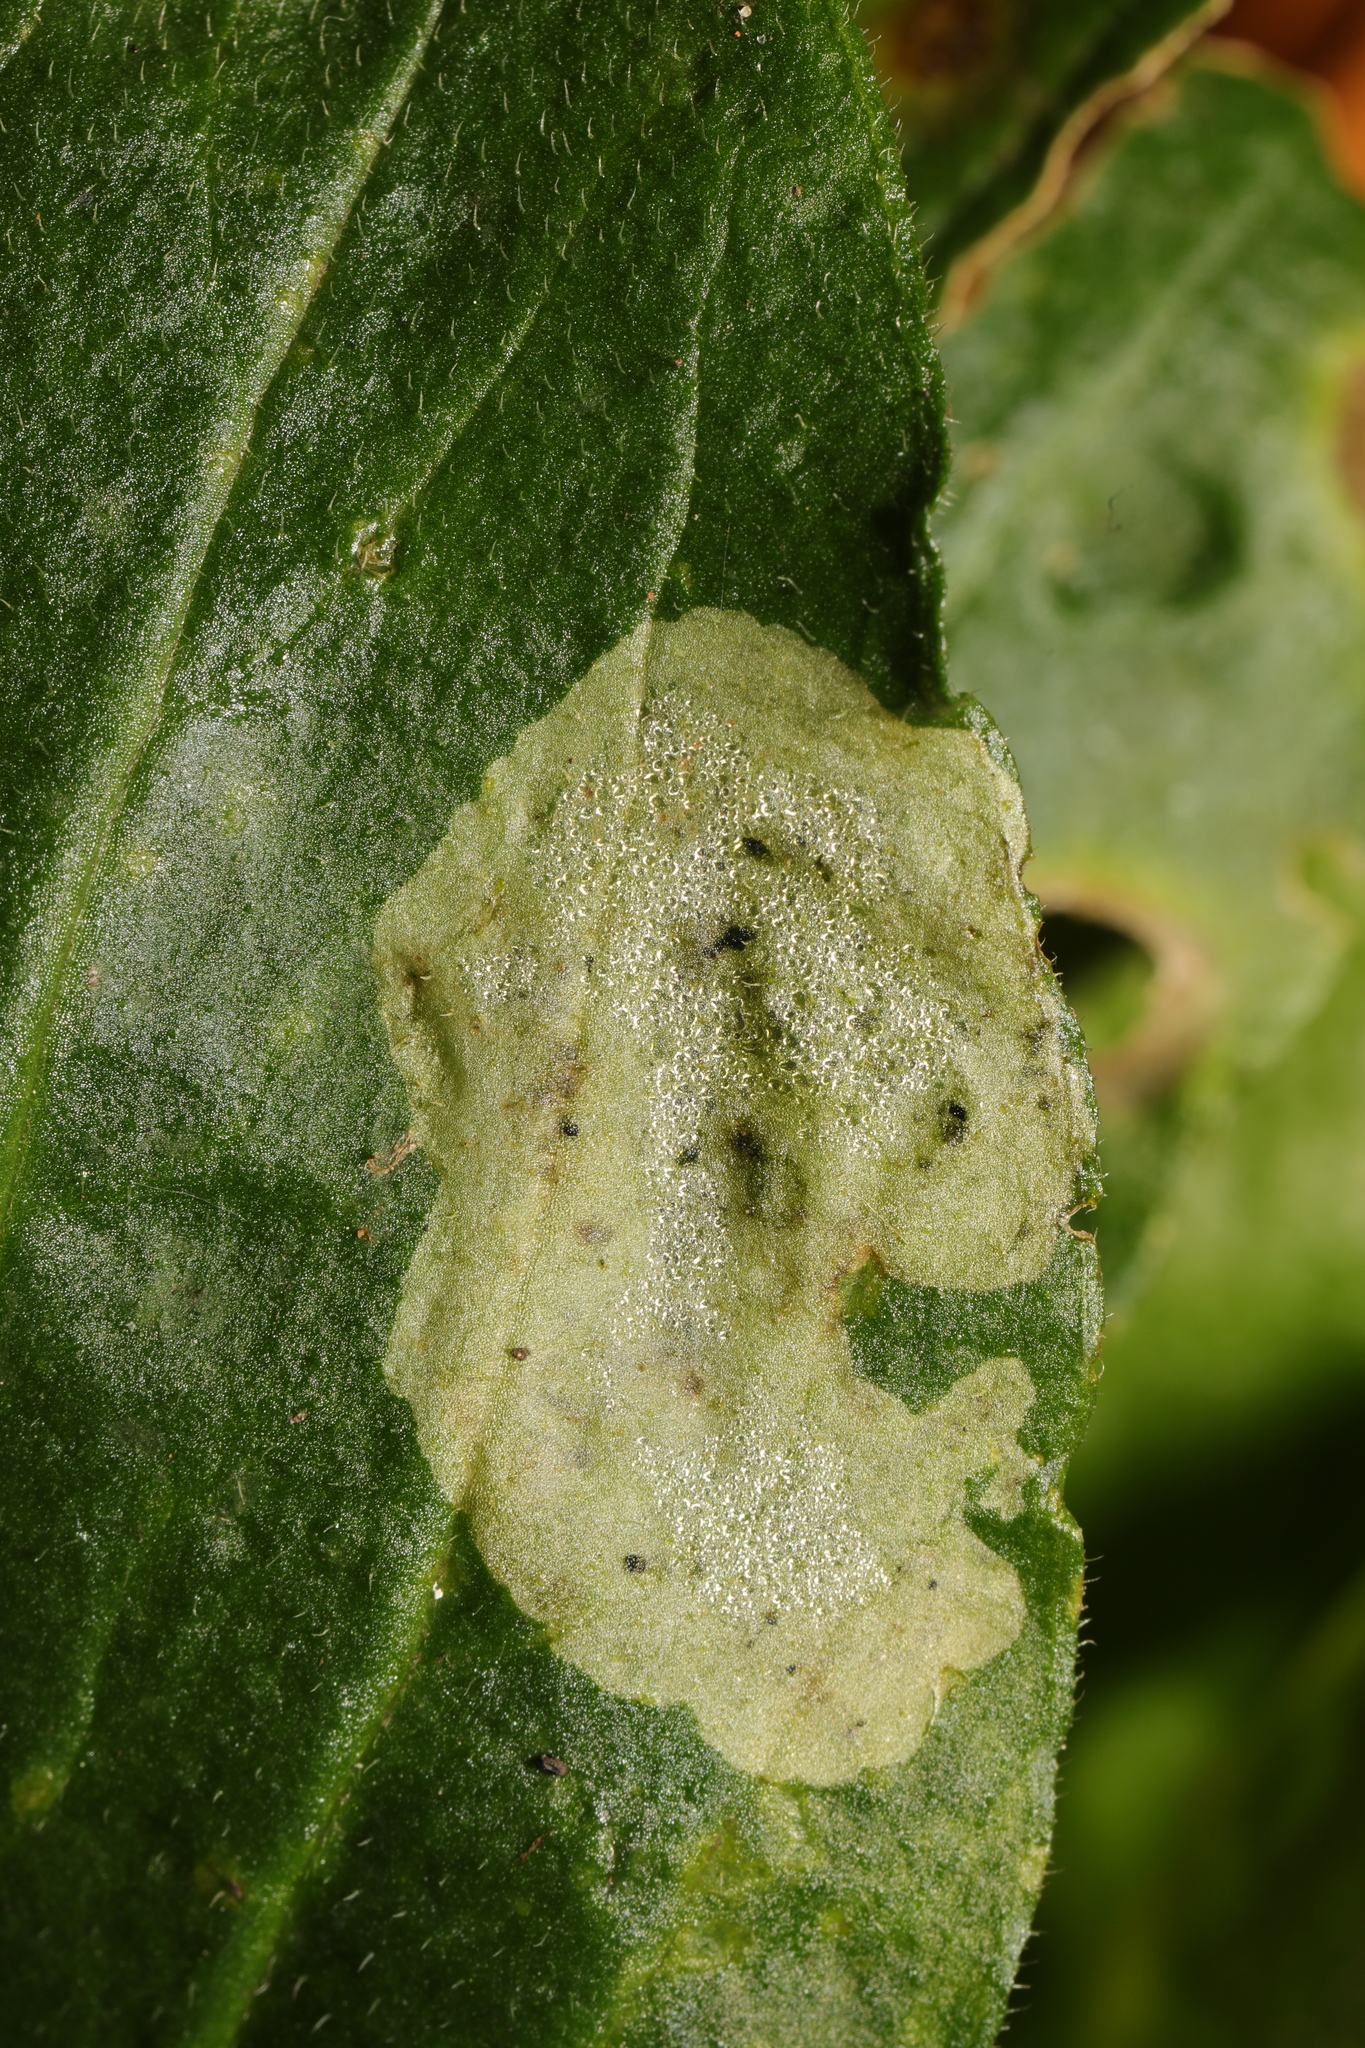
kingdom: Animalia
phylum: Arthropoda
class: Insecta
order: Diptera
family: Agromyzidae
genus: Amauromyza
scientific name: Amauromyza flavifrons
